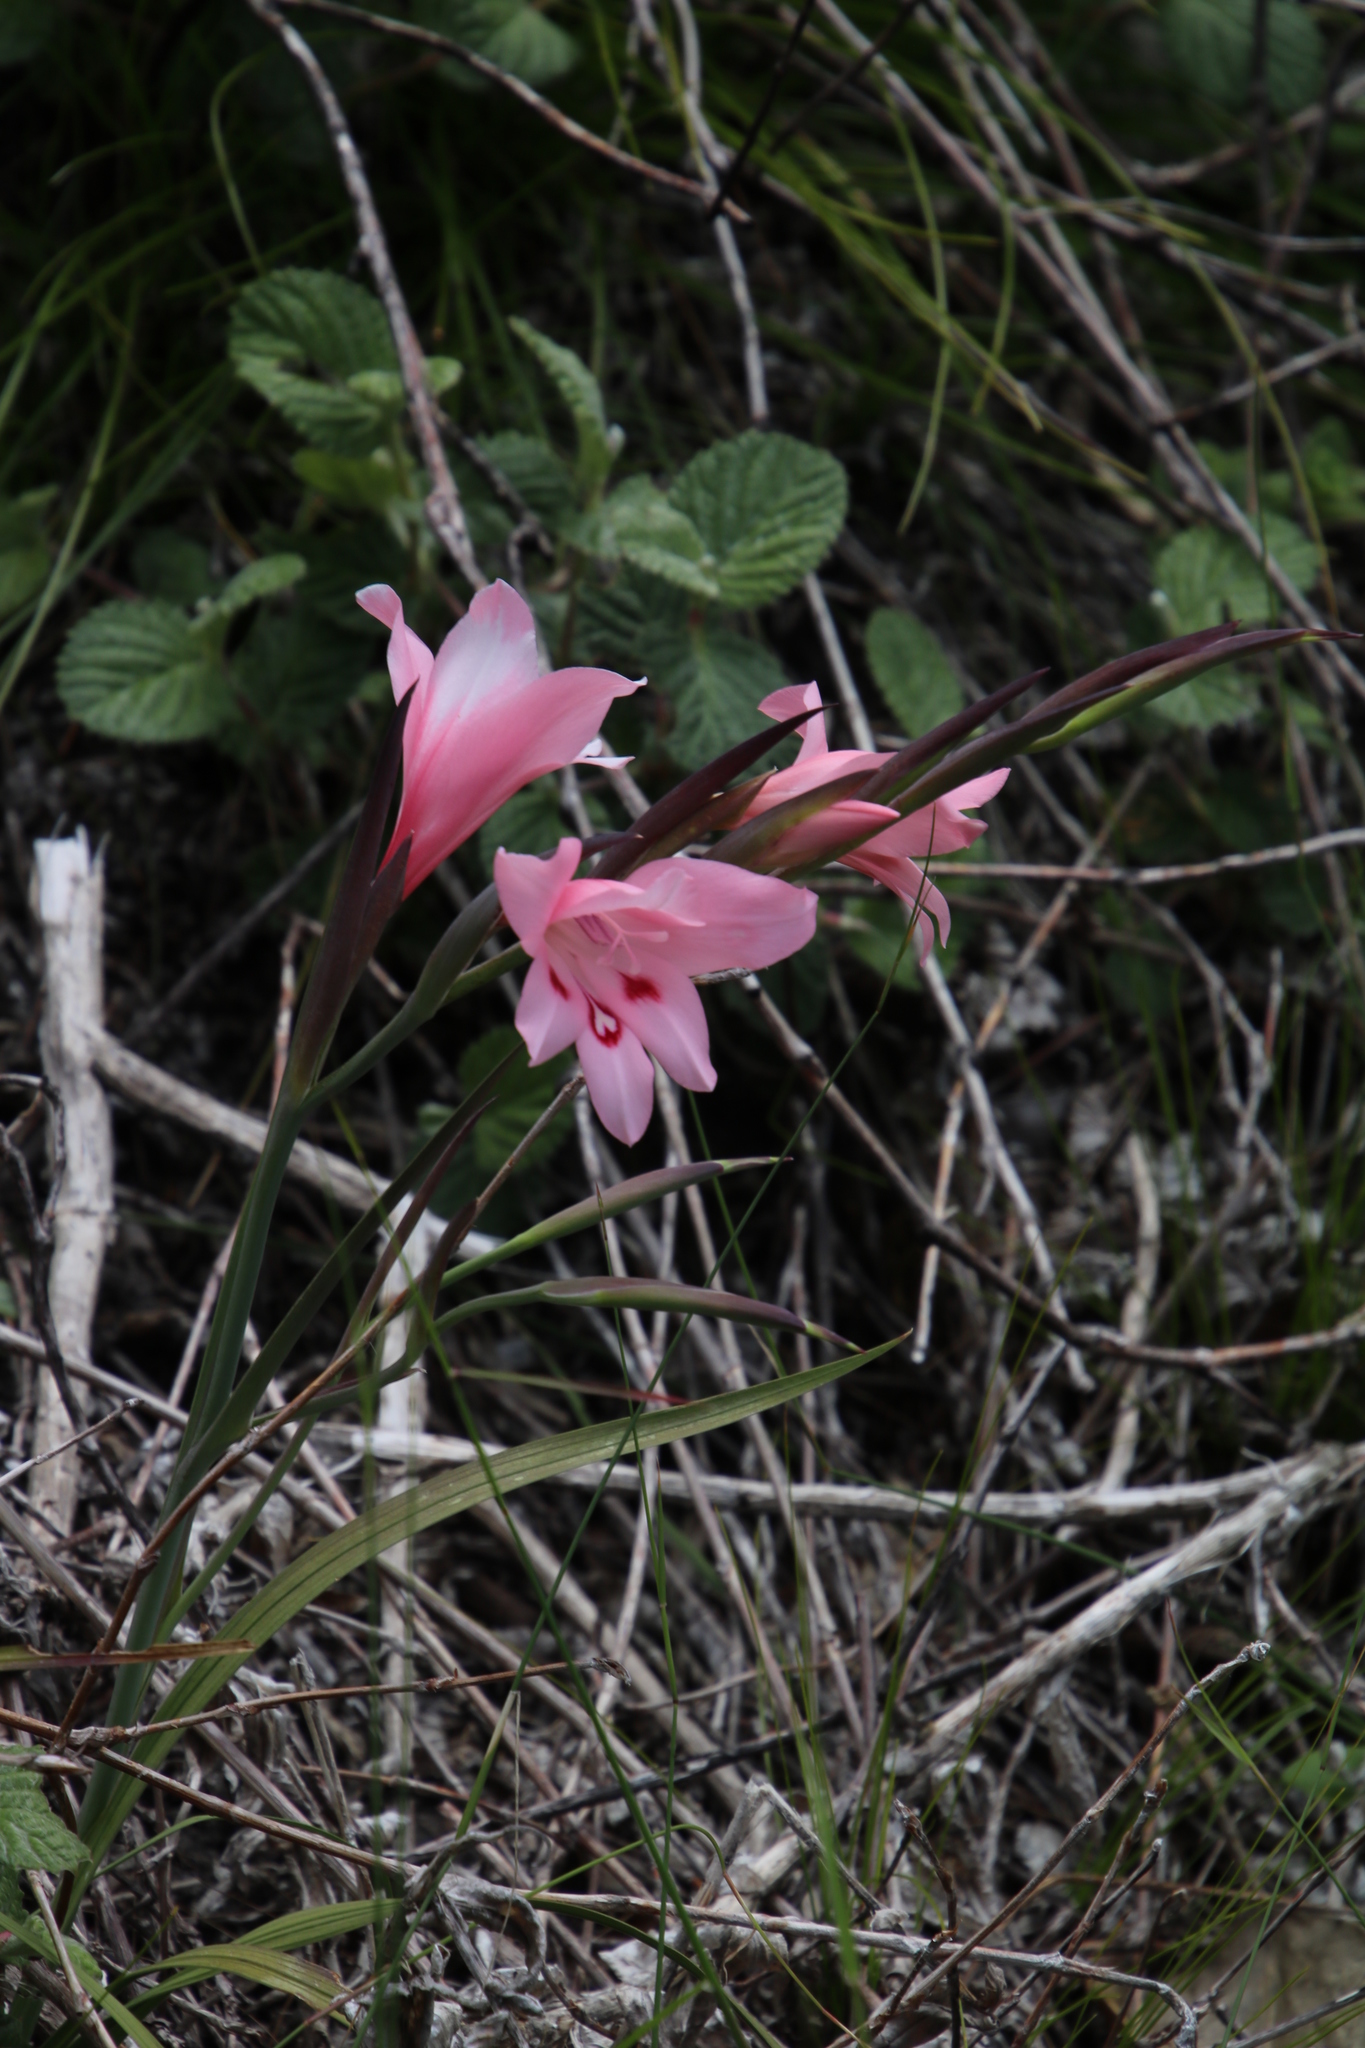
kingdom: Plantae
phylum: Tracheophyta
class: Liliopsida
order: Asparagales
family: Iridaceae
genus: Gladiolus
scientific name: Gladiolus carneus
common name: Painted-lady
